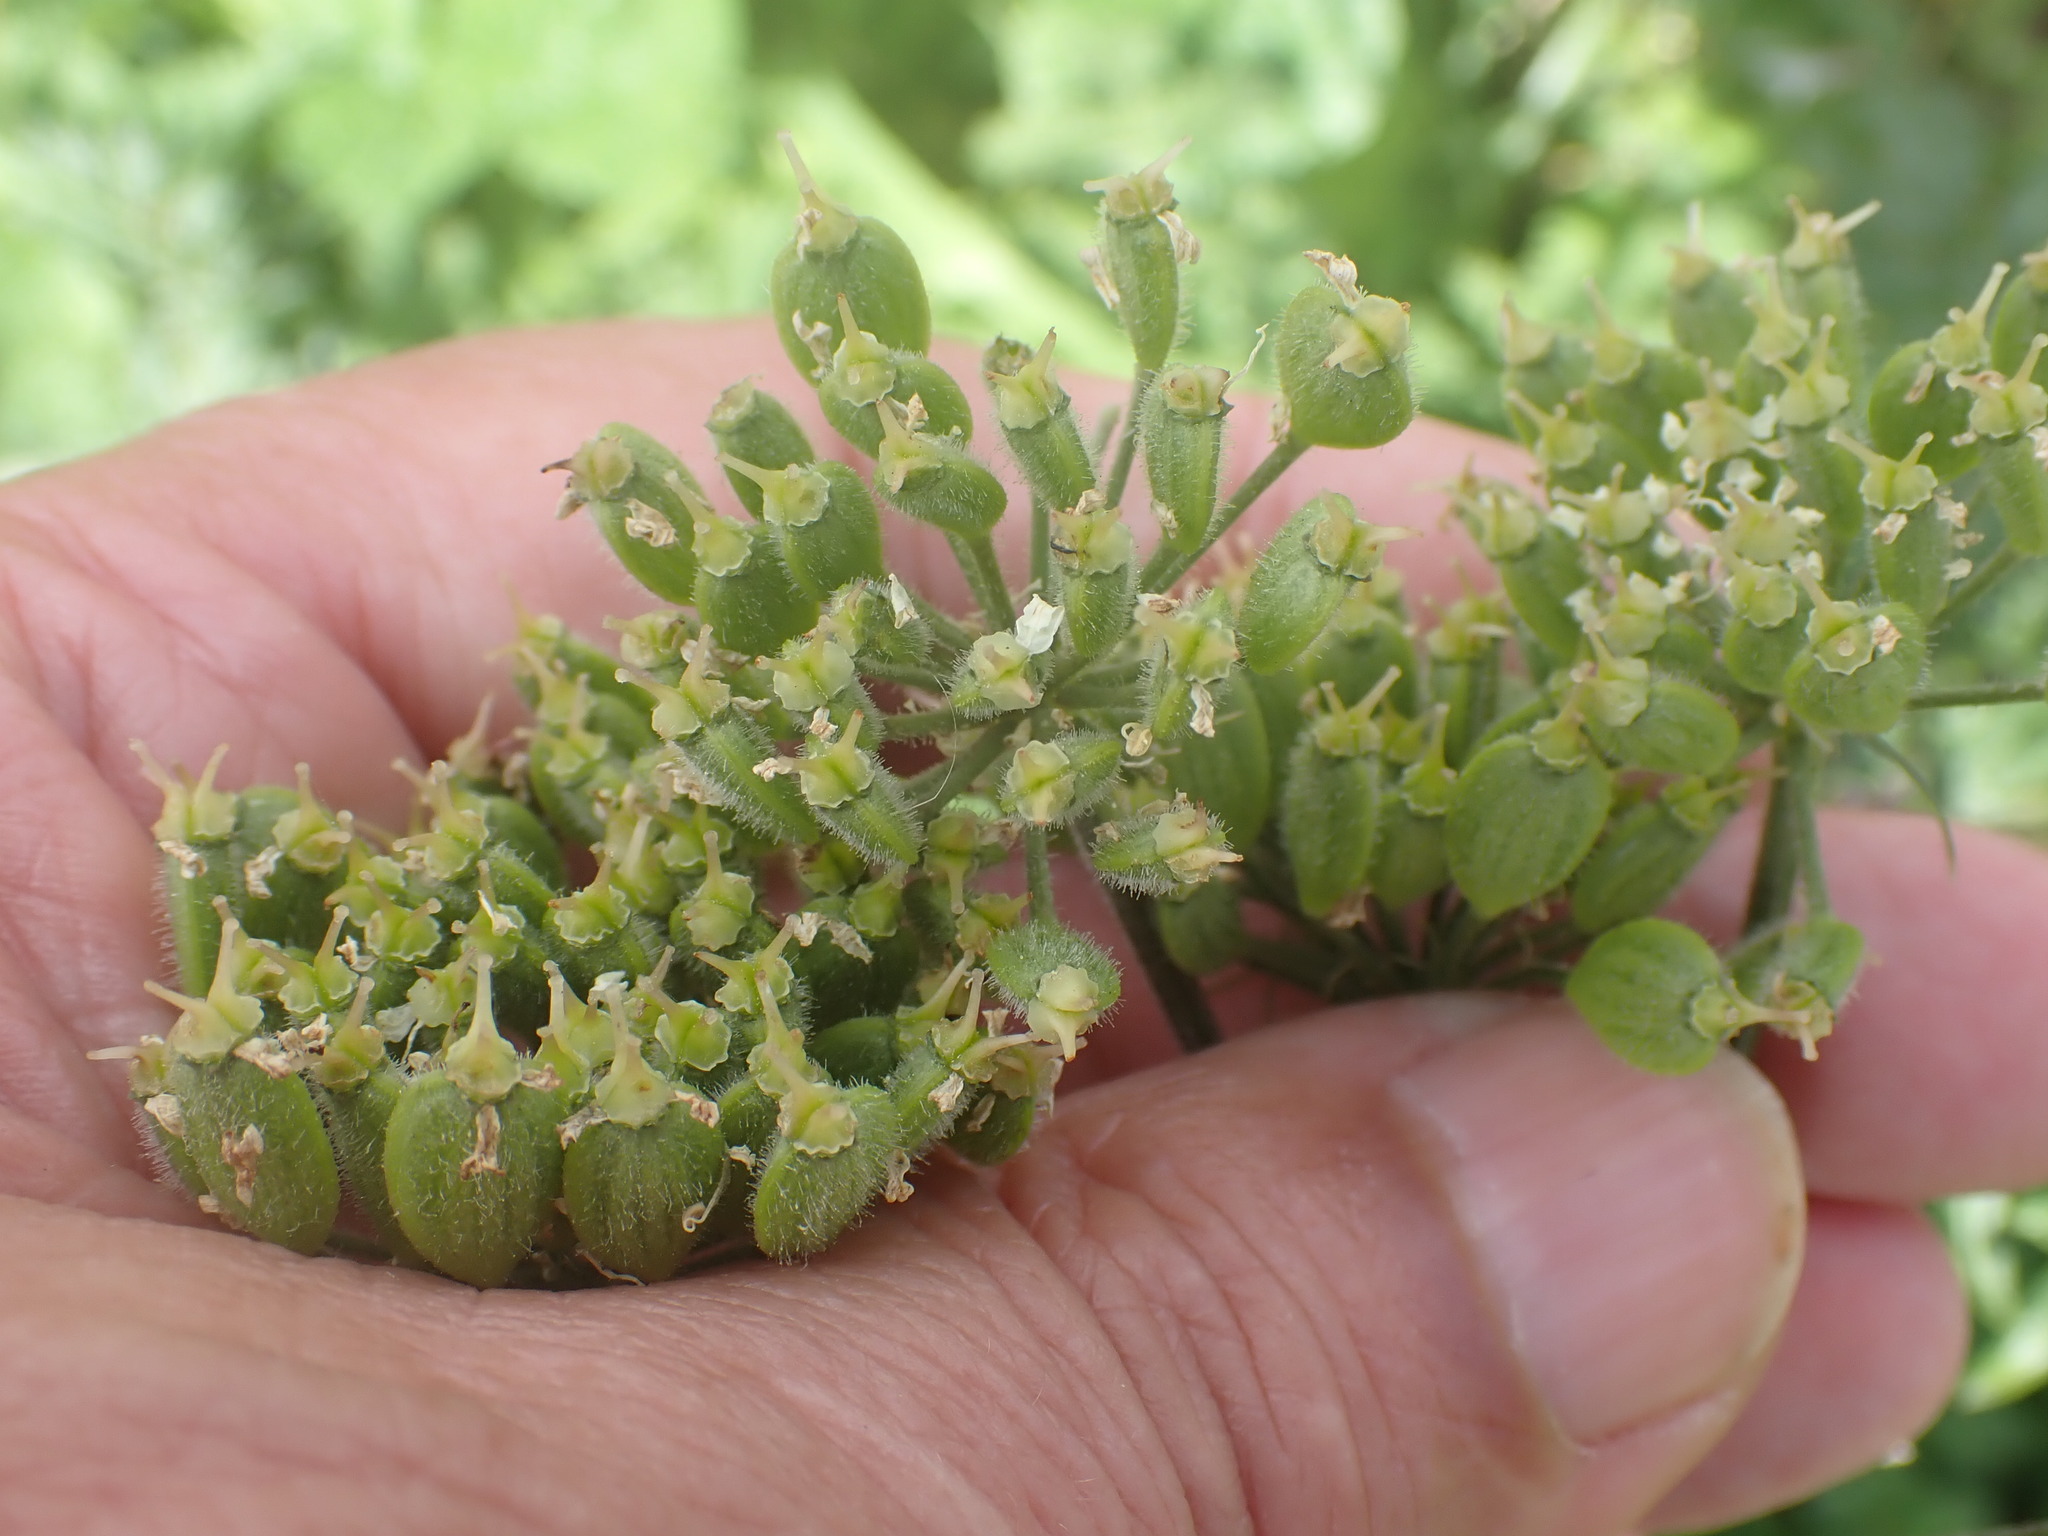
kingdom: Plantae
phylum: Tracheophyta
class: Magnoliopsida
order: Apiales
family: Apiaceae
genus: Heracleum
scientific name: Heracleum sphondylium
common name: Hogweed
